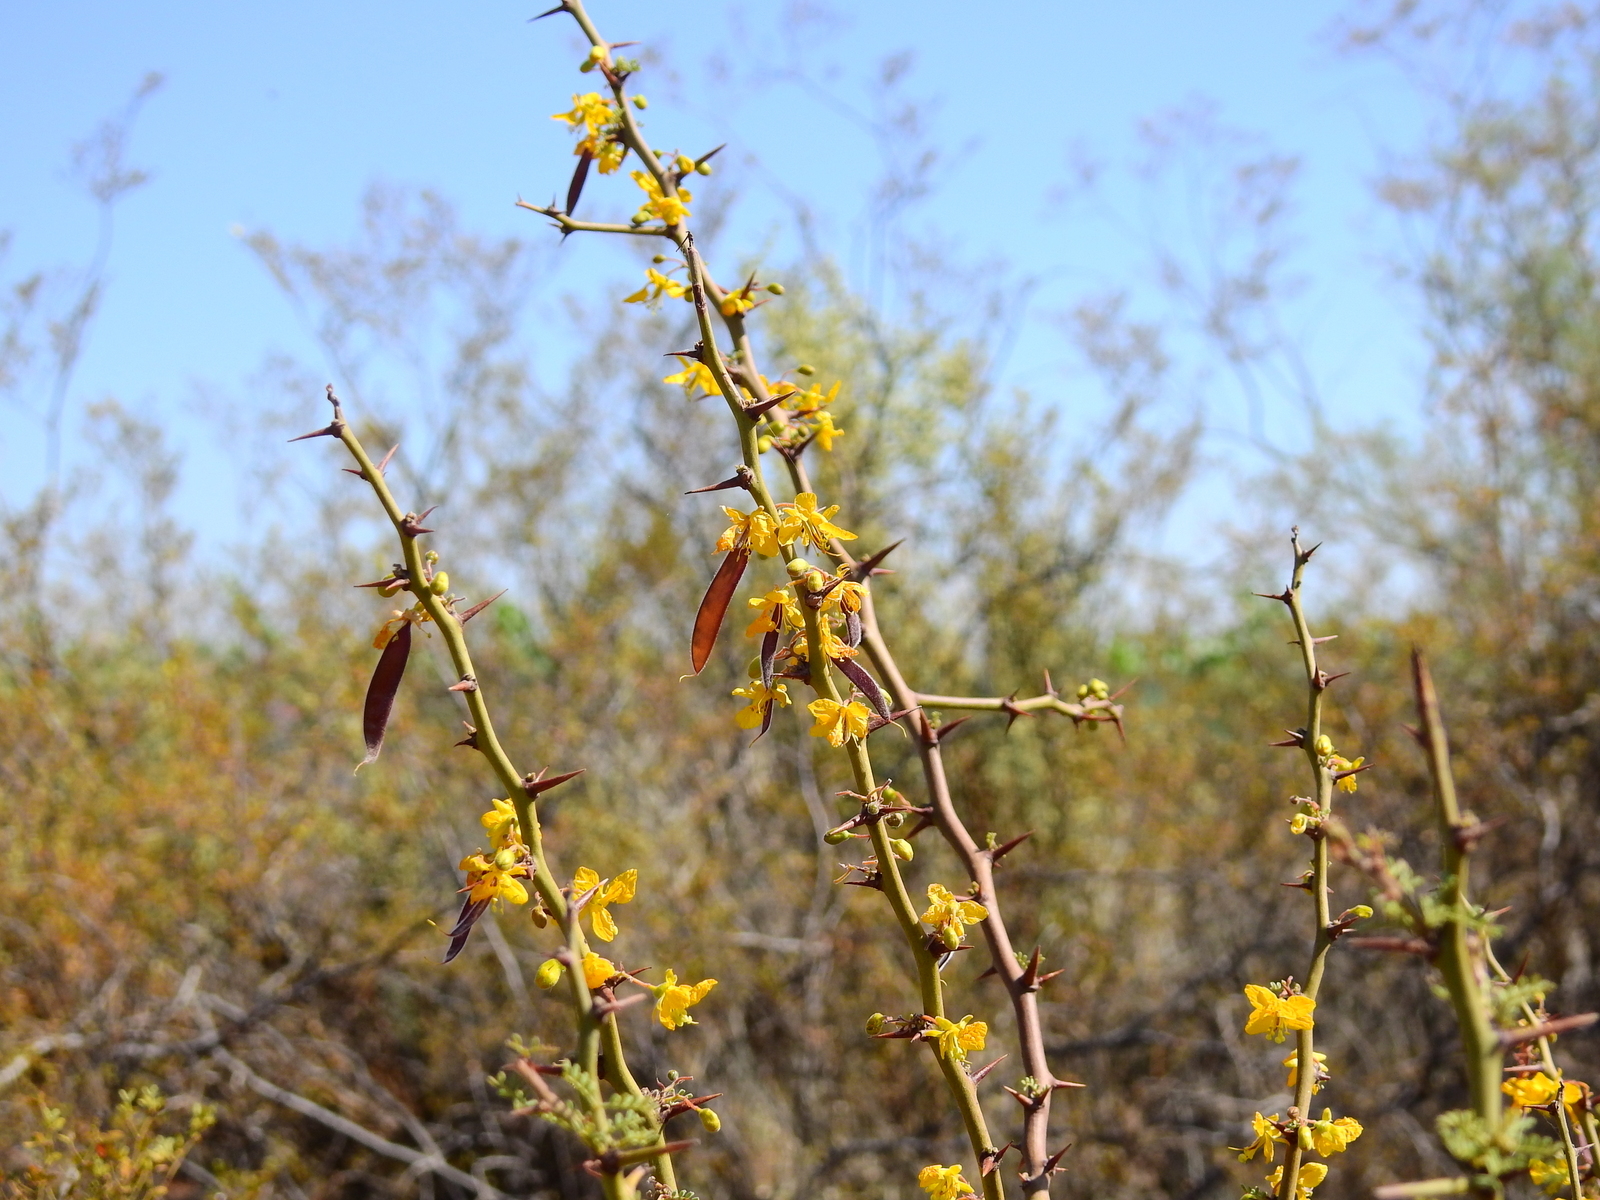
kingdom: Plantae
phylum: Tracheophyta
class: Magnoliopsida
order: Fabales
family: Fabaceae
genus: Parkinsonia
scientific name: Parkinsonia praecox
